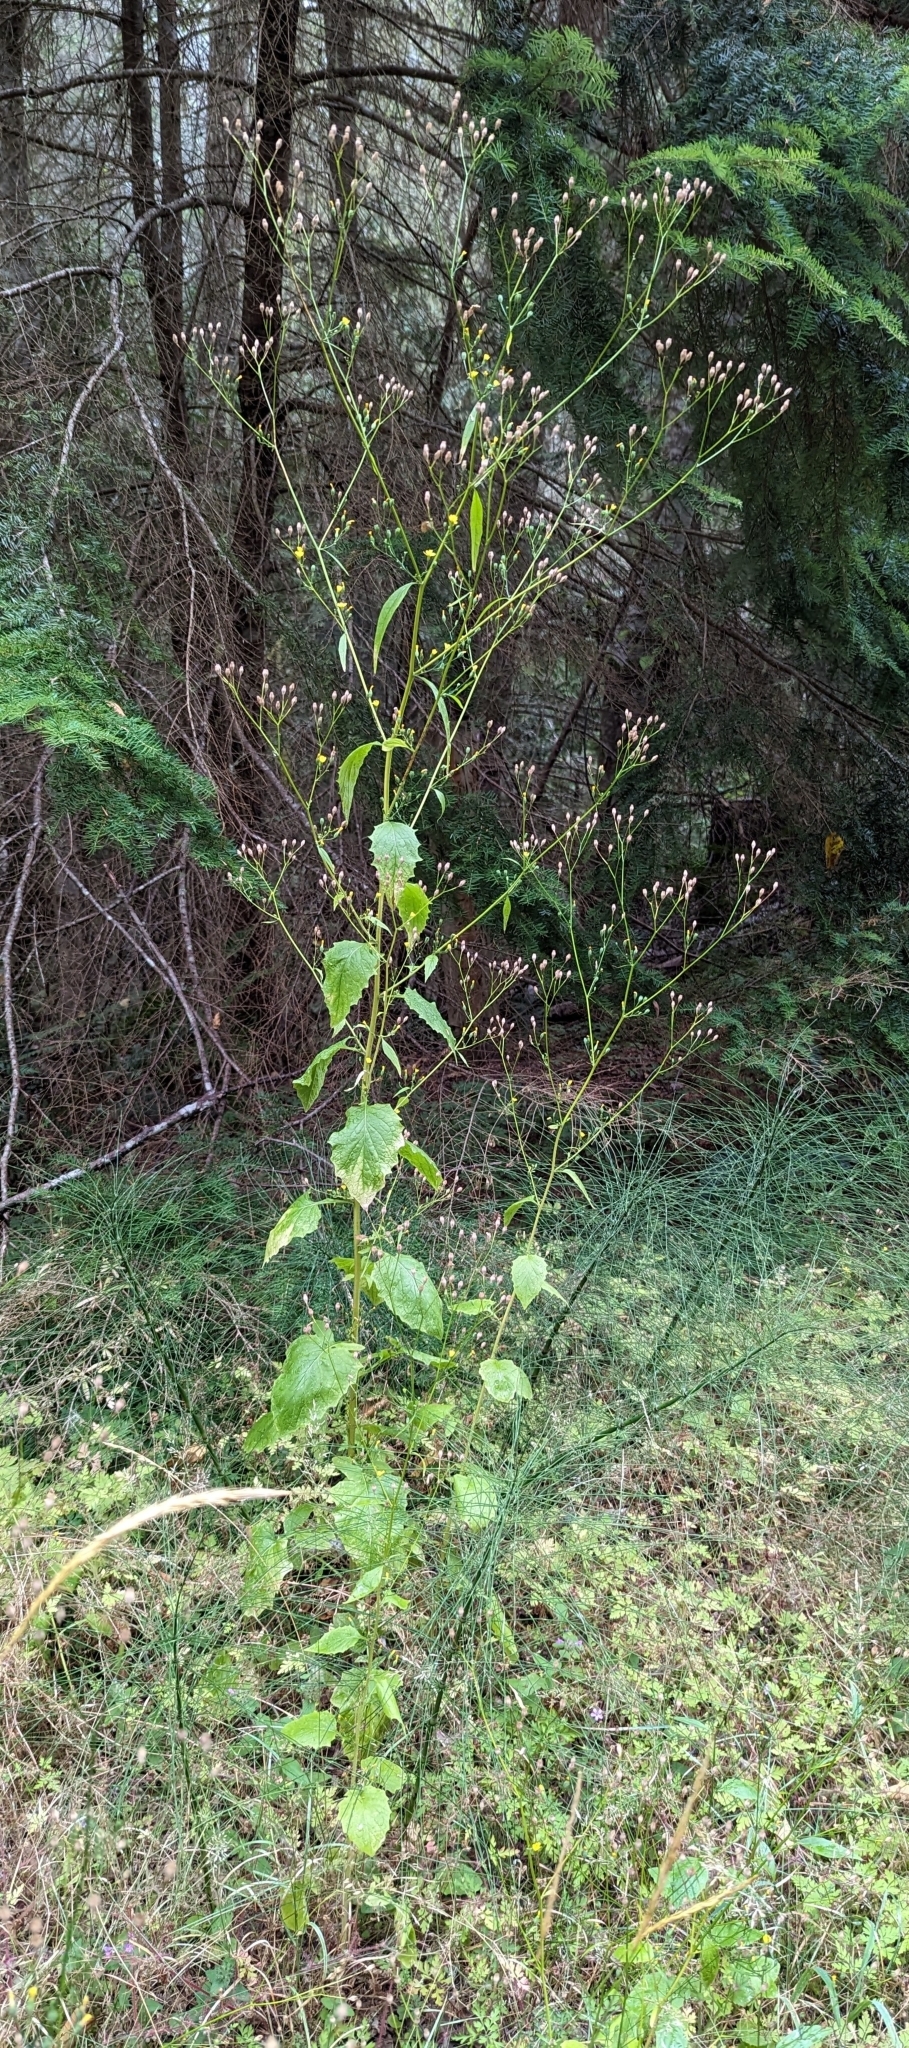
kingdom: Plantae
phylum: Tracheophyta
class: Magnoliopsida
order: Asterales
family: Asteraceae
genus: Lapsana
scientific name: Lapsana communis
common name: Nipplewort
